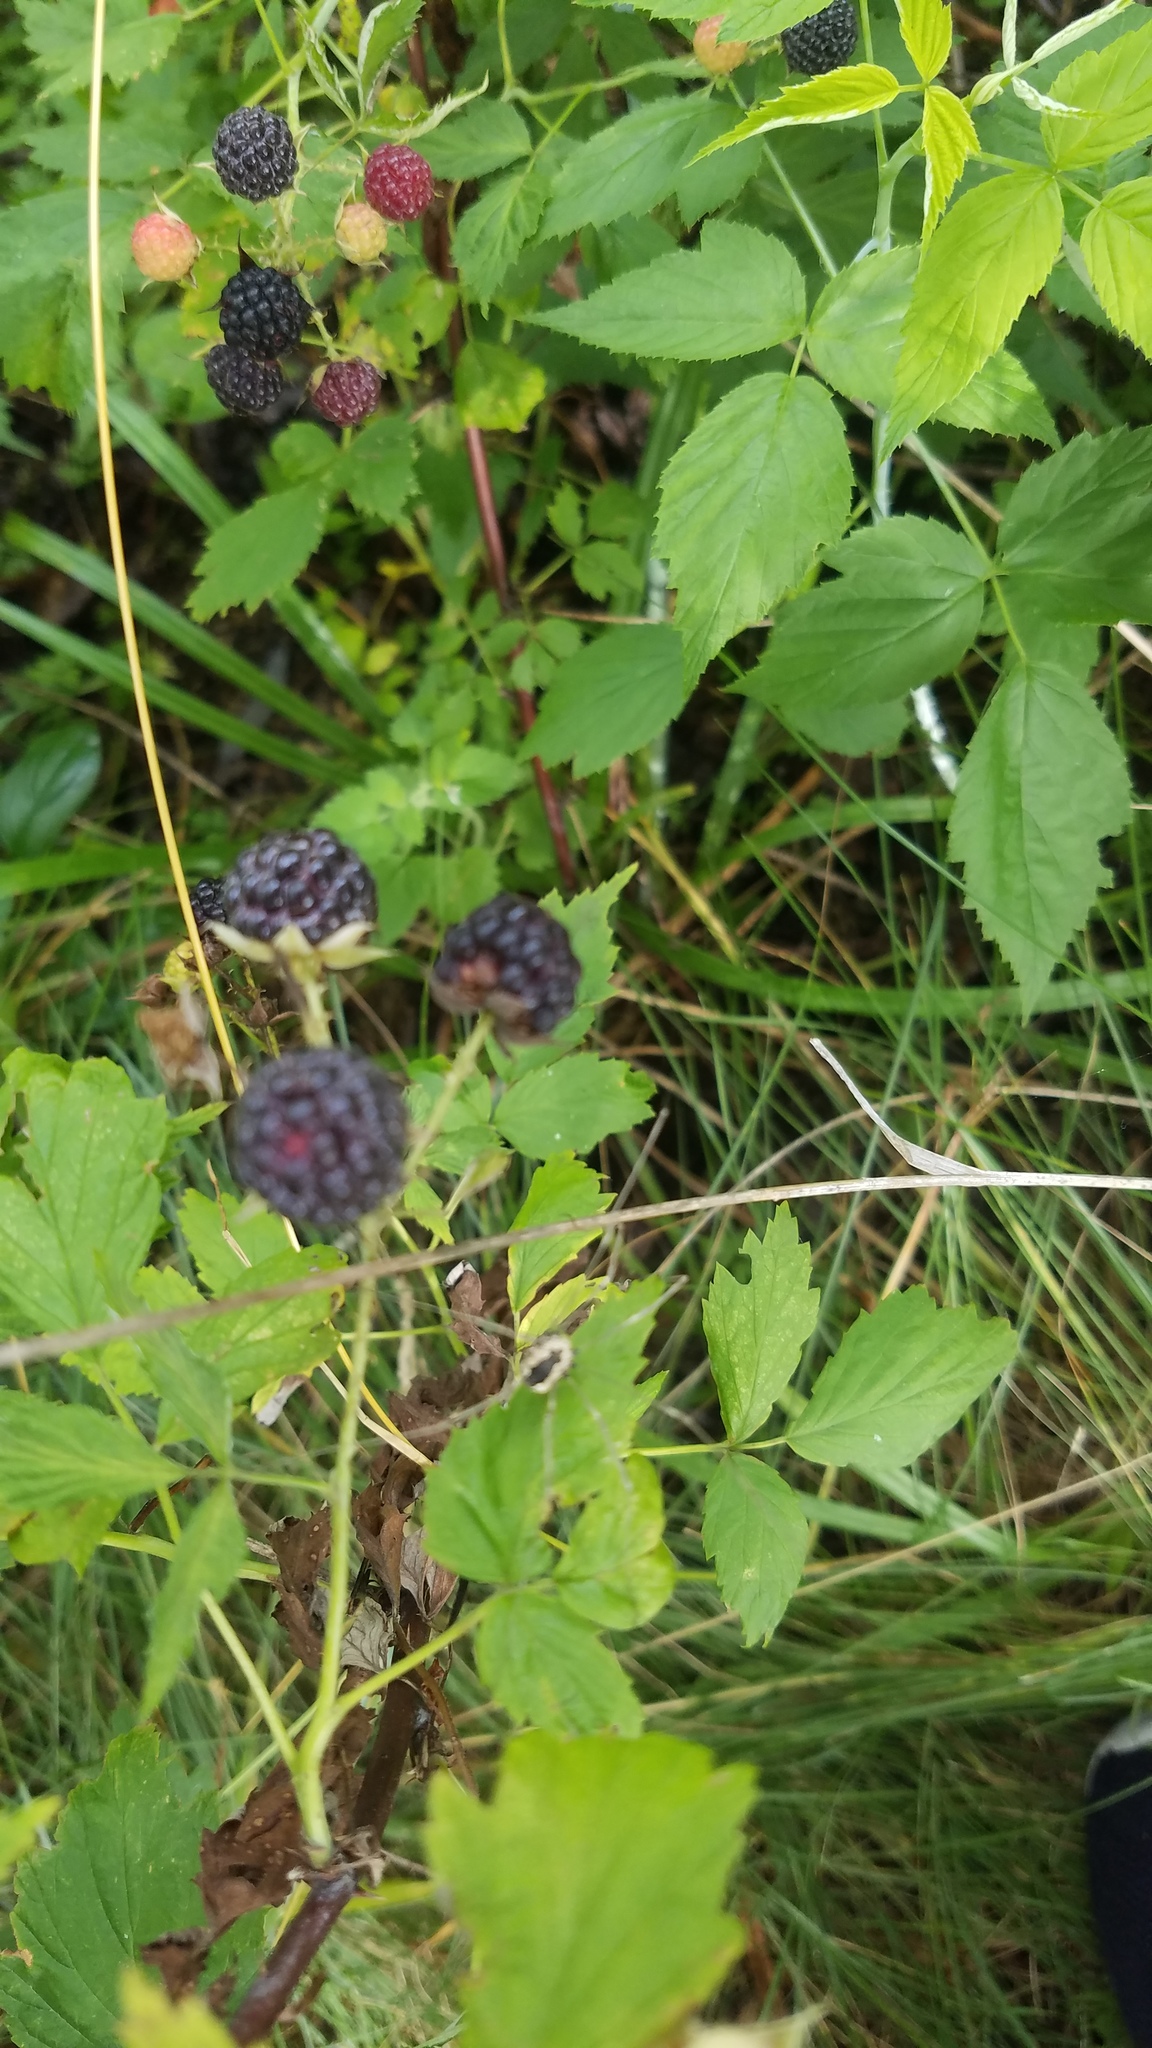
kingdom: Plantae
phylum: Tracheophyta
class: Magnoliopsida
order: Rosales
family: Rosaceae
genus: Rubus
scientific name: Rubus occidentalis
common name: Black raspberry
